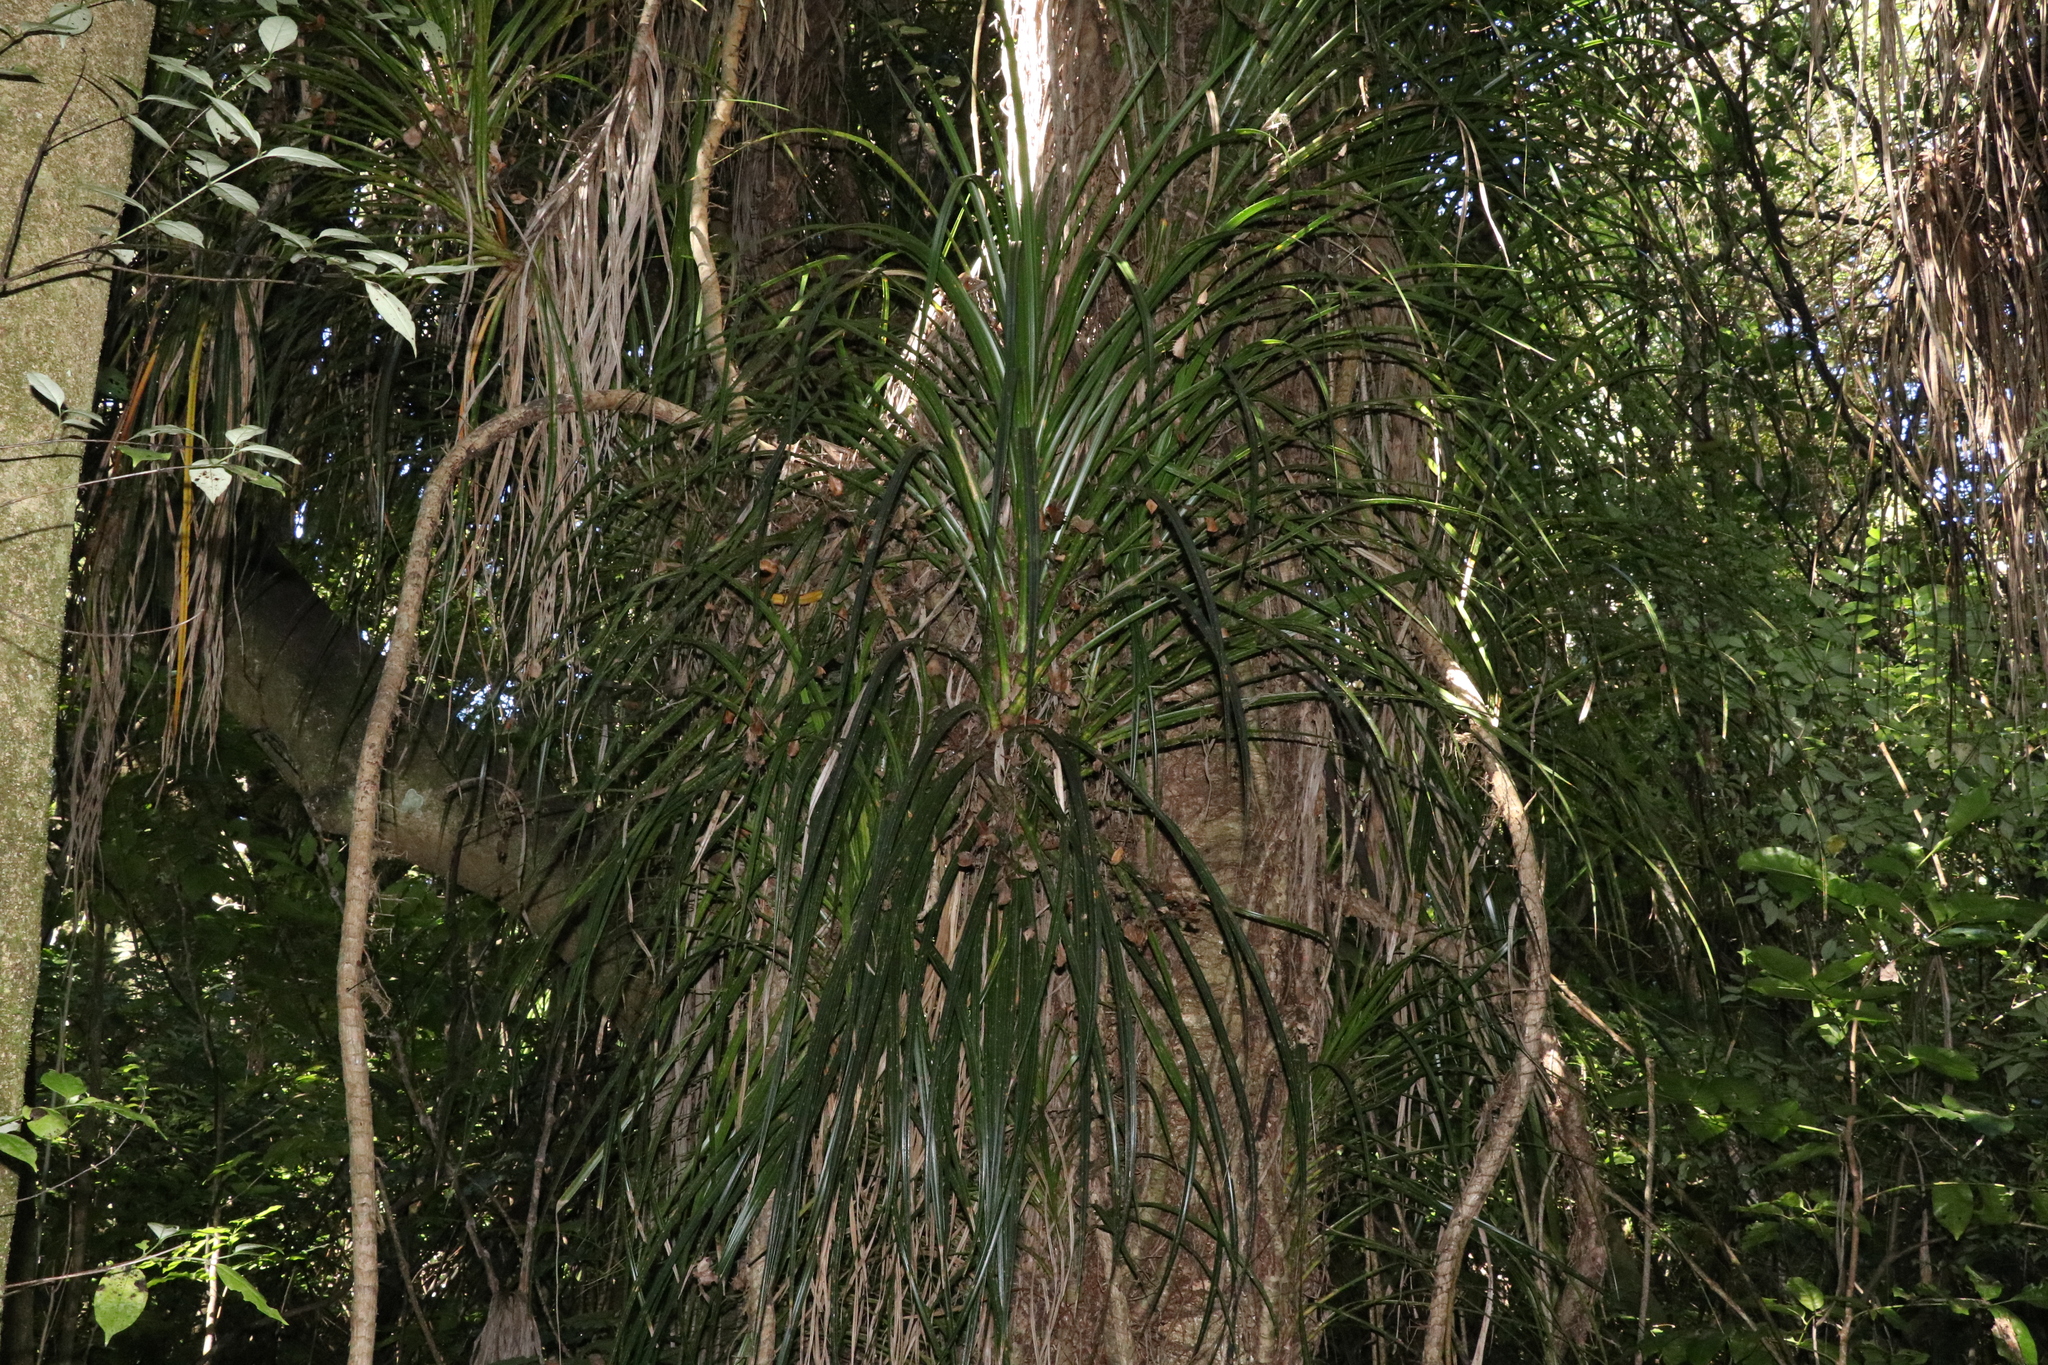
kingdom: Plantae
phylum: Tracheophyta
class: Liliopsida
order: Pandanales
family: Pandanaceae
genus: Freycinetia
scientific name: Freycinetia banksii
